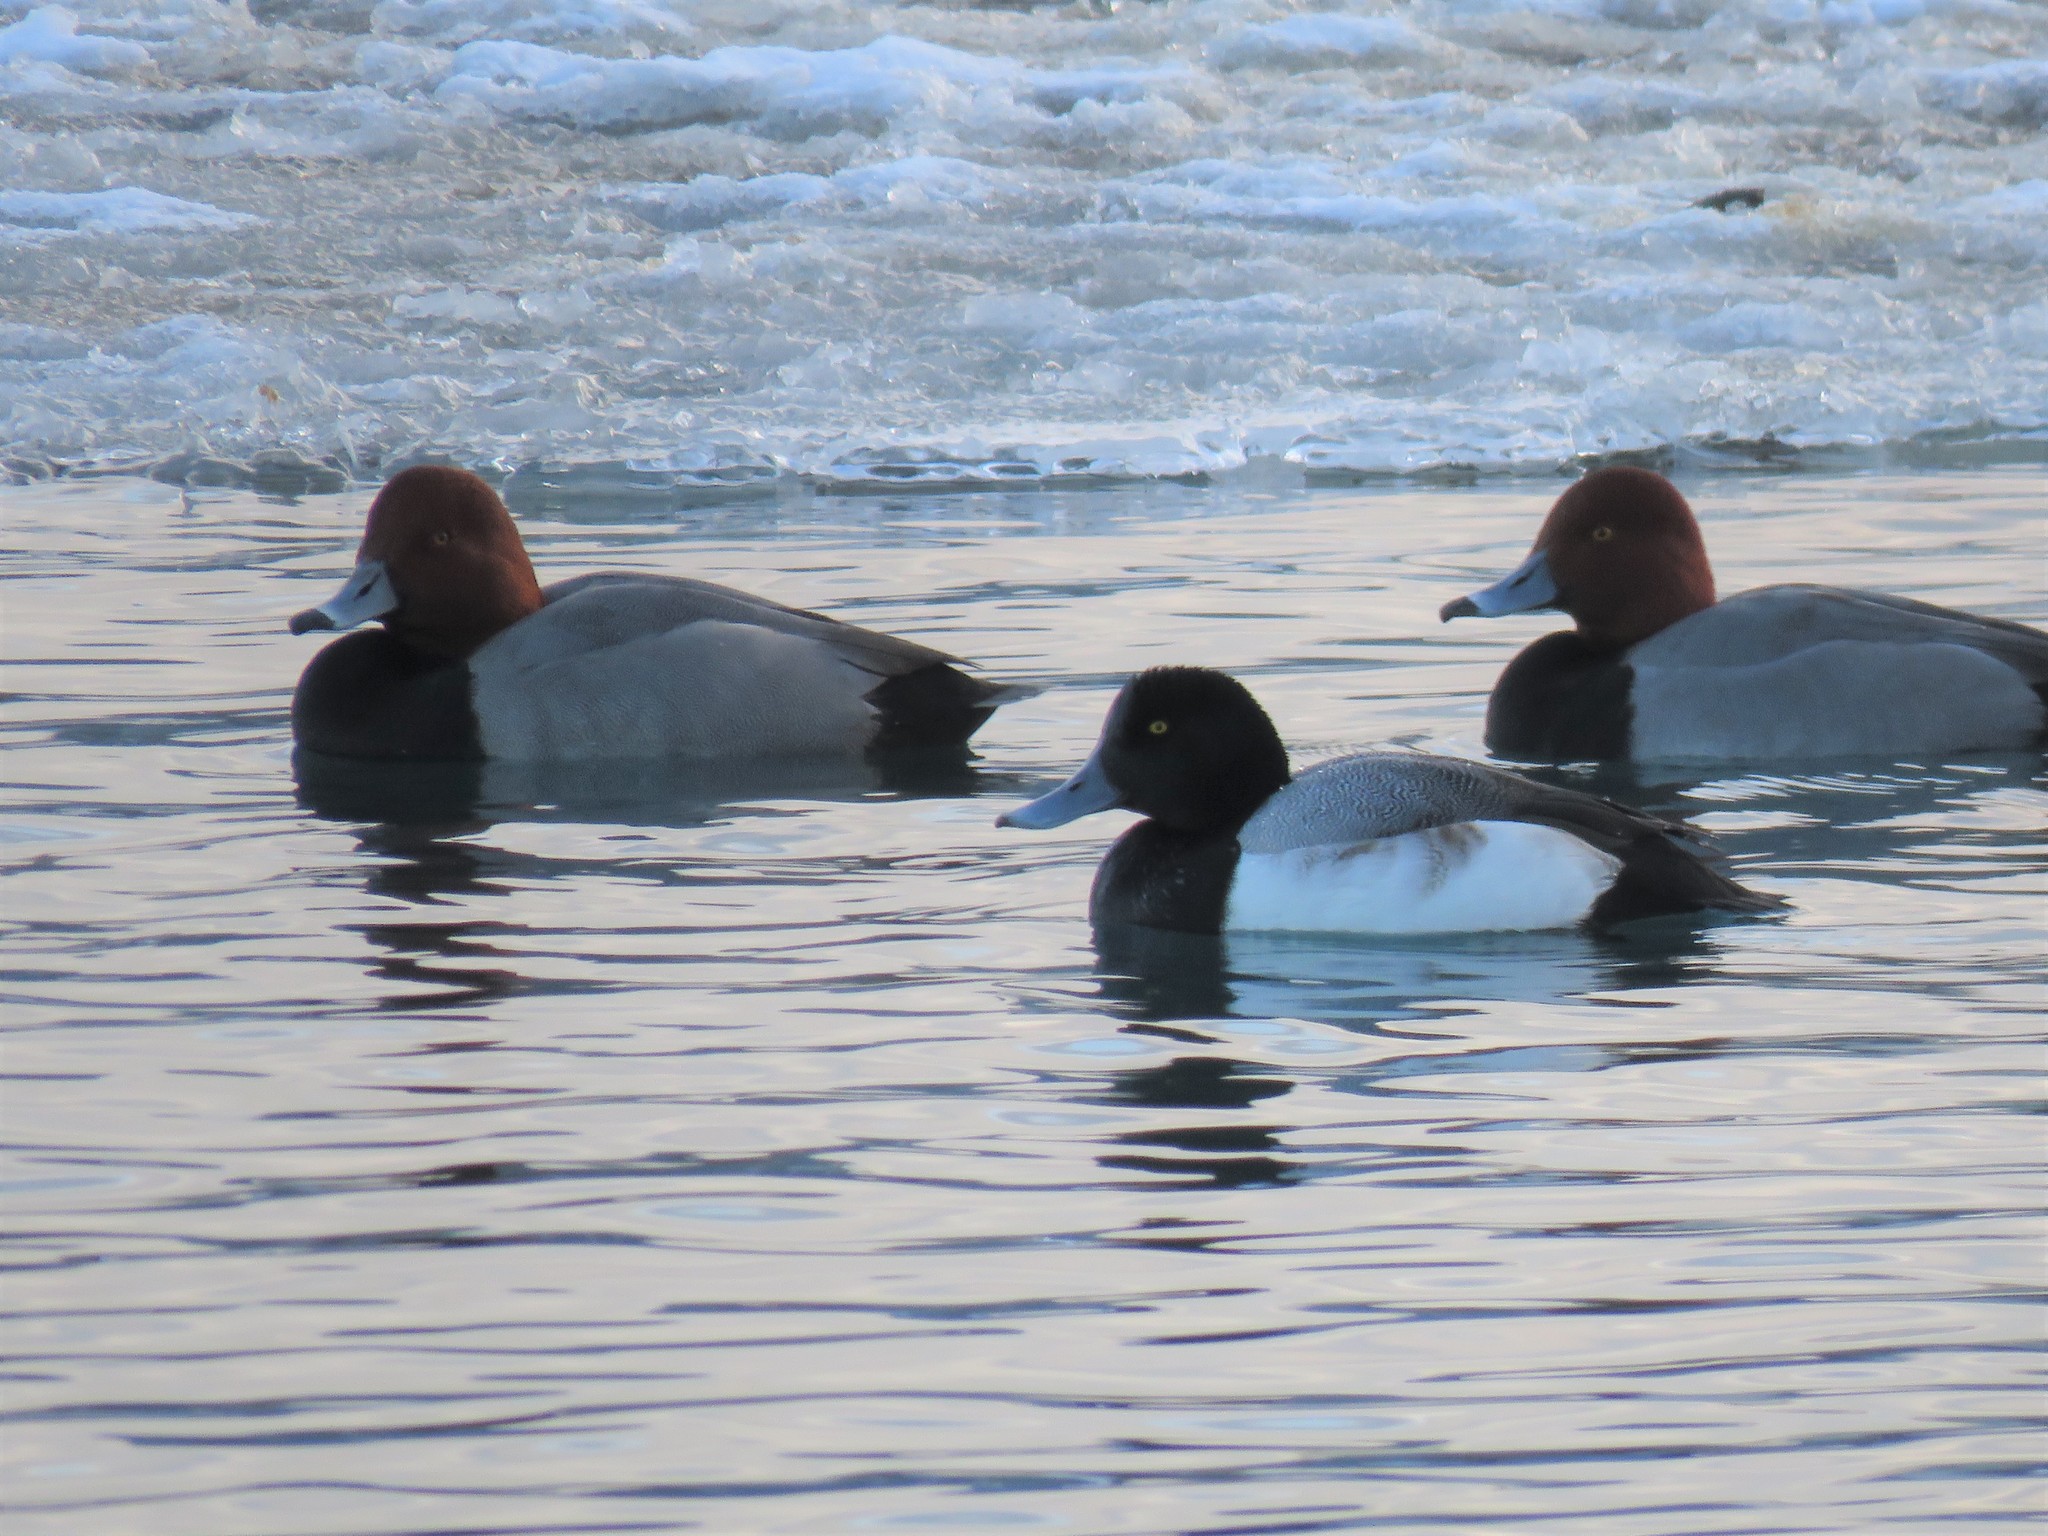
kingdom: Animalia
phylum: Chordata
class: Aves
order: Anseriformes
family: Anatidae
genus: Aythya
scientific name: Aythya marila
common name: Greater scaup
